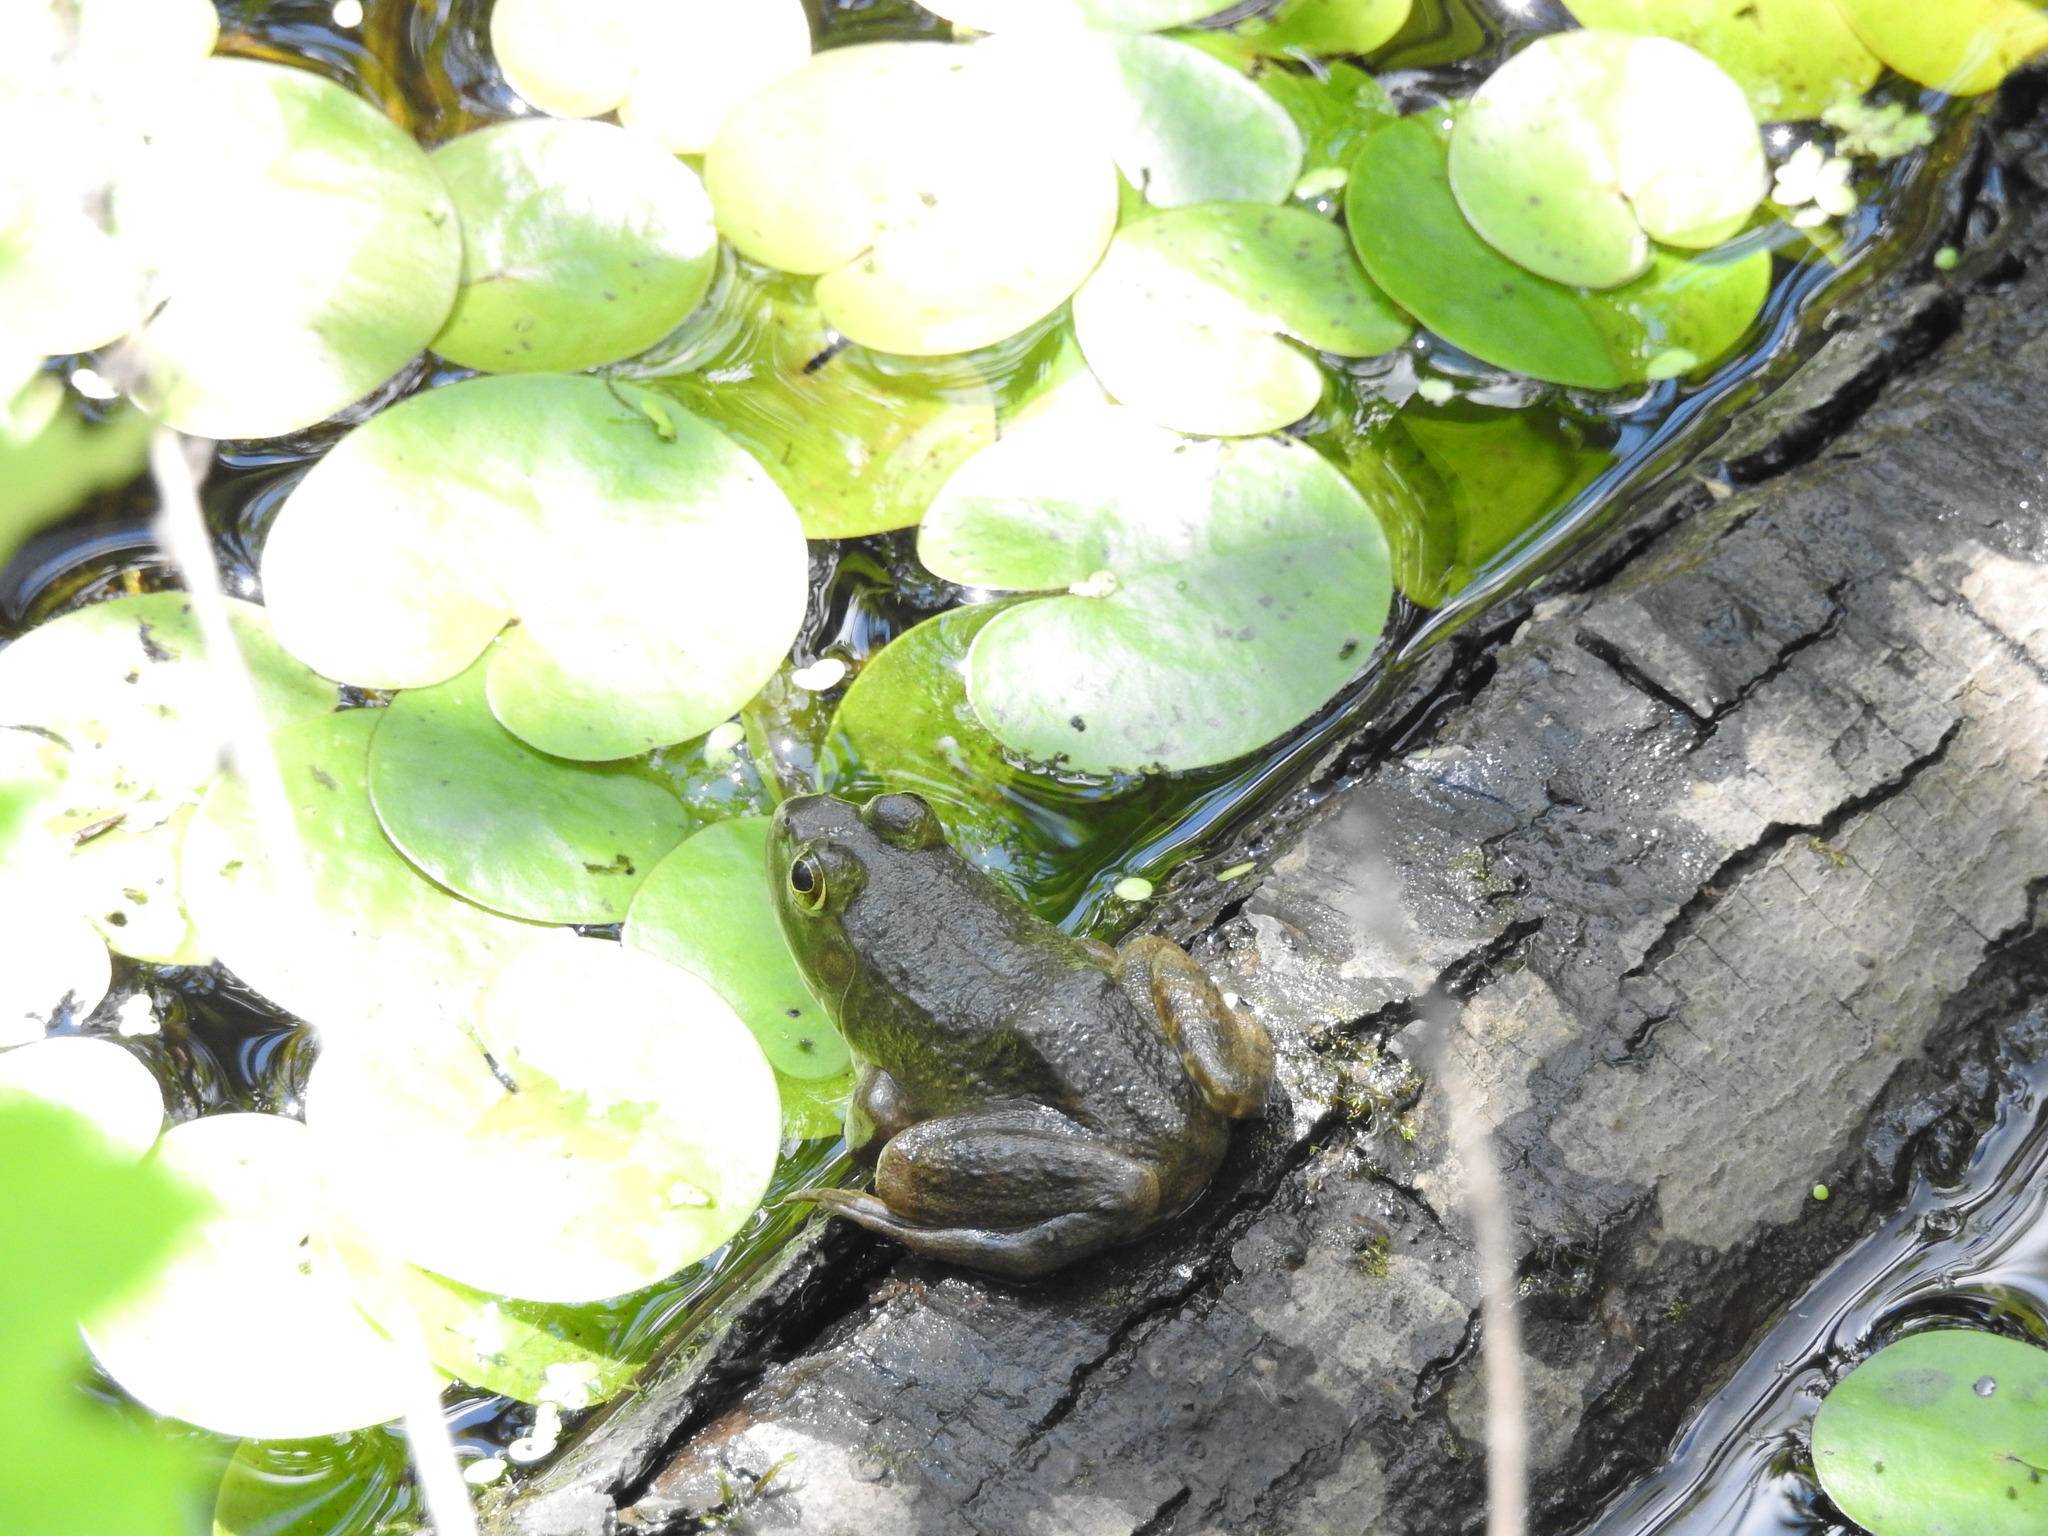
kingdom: Animalia
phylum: Chordata
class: Amphibia
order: Anura
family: Ranidae
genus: Lithobates
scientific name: Lithobates catesbeianus
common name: American bullfrog
